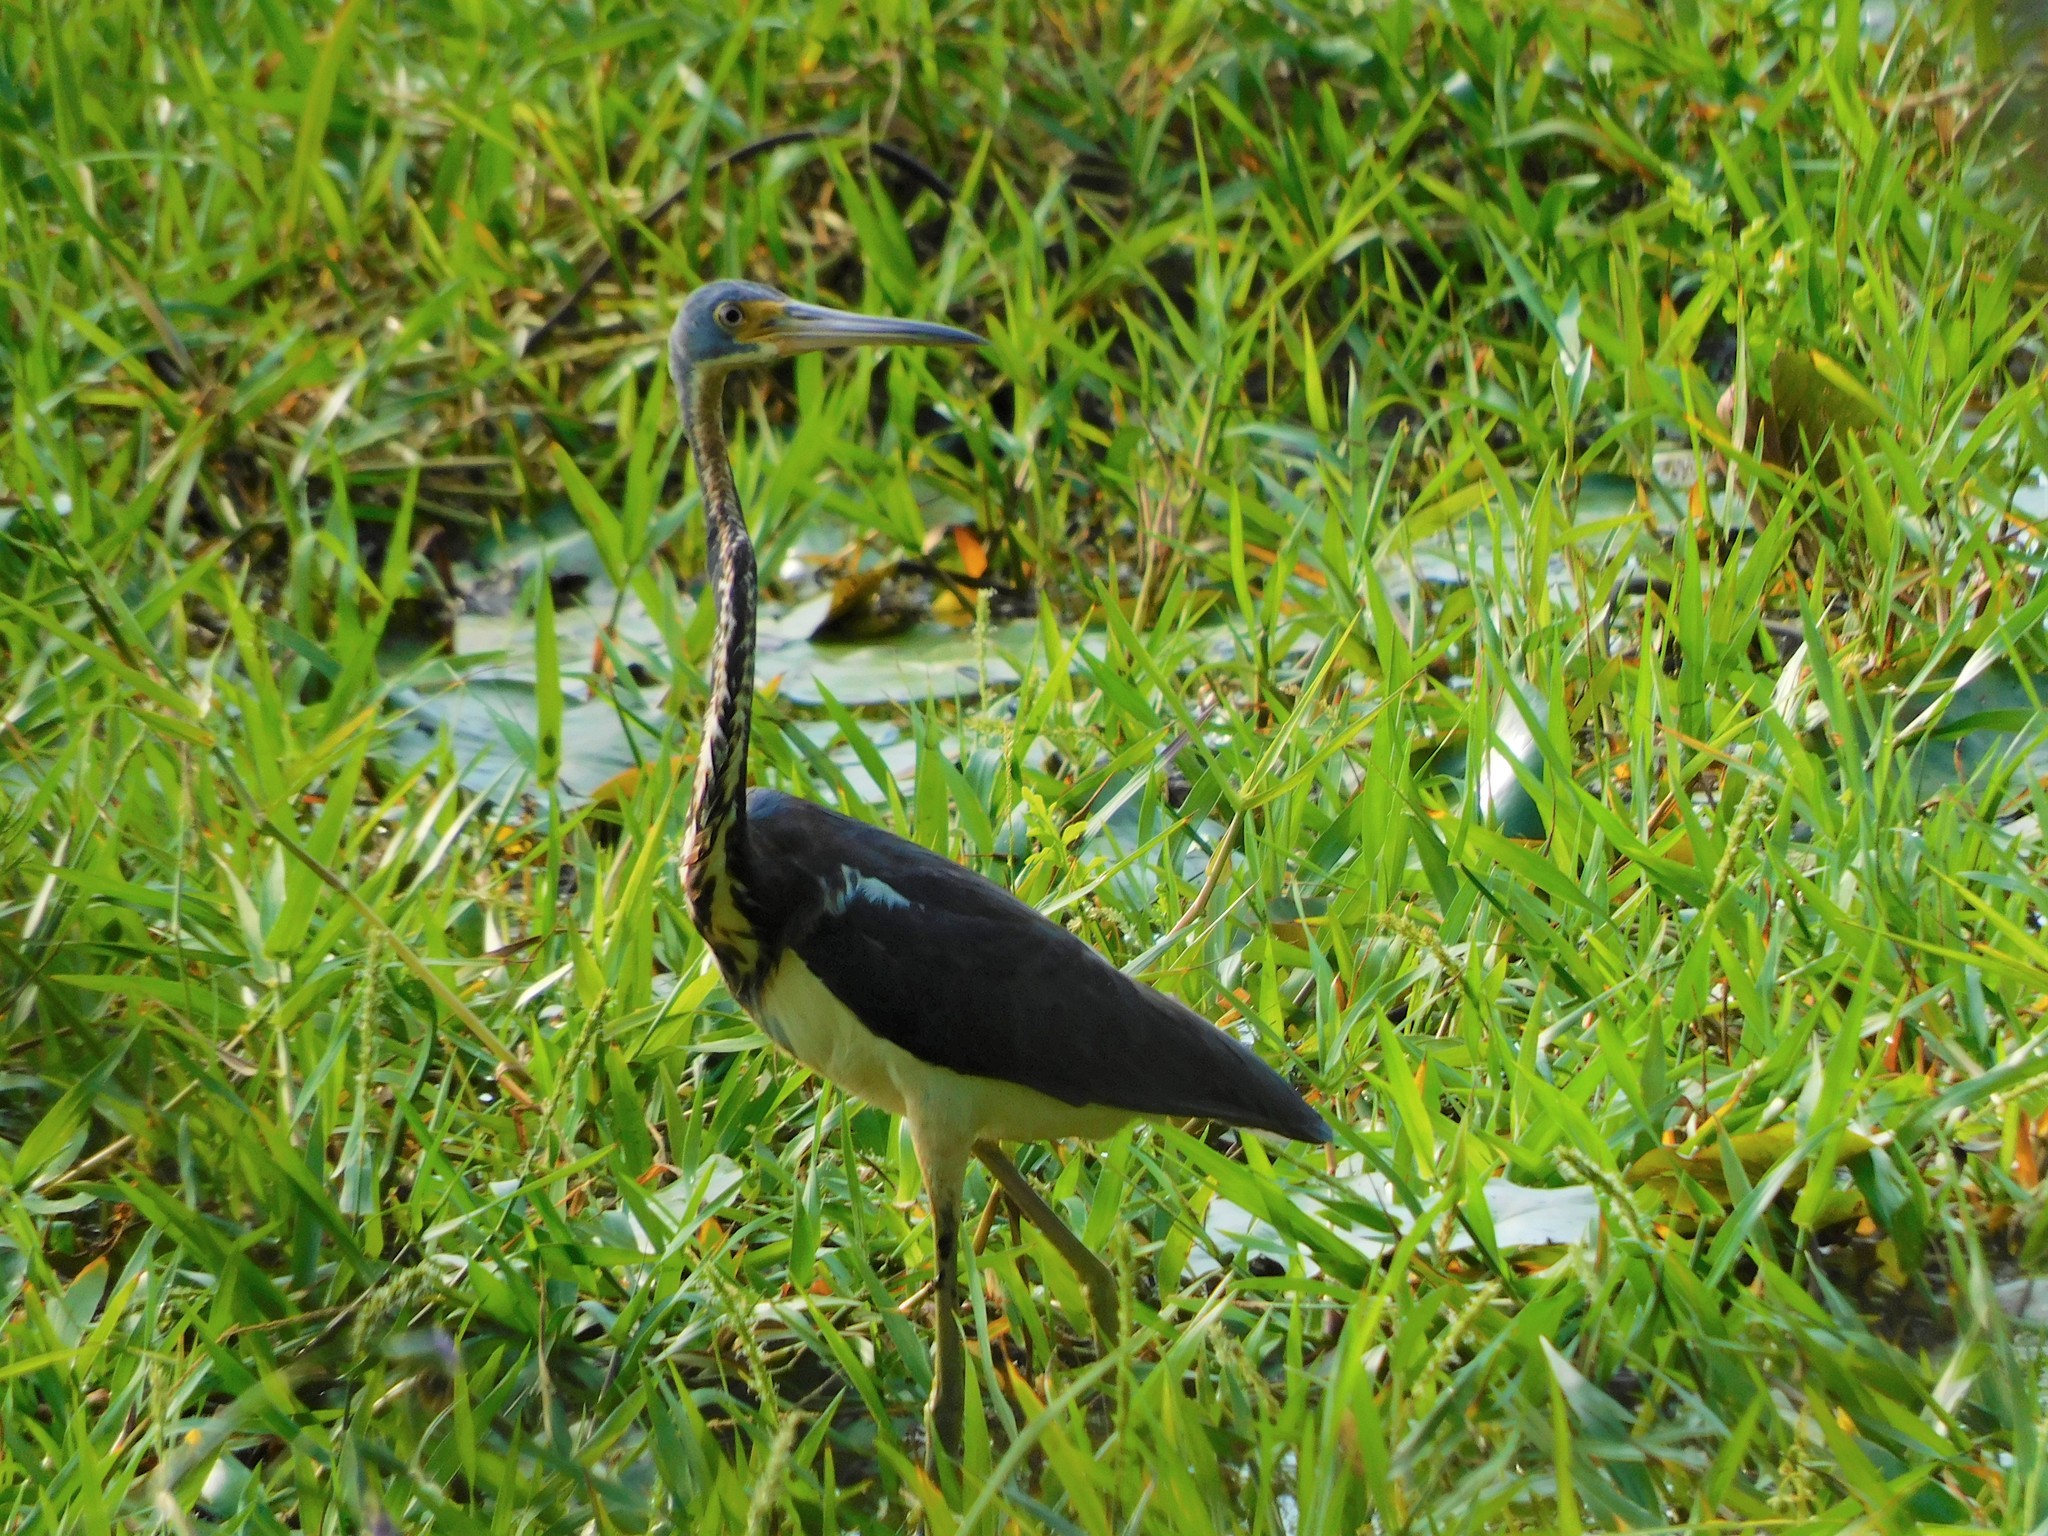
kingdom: Animalia
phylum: Chordata
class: Aves
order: Pelecaniformes
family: Ardeidae
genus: Egretta
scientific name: Egretta tricolor
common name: Tricolored heron
